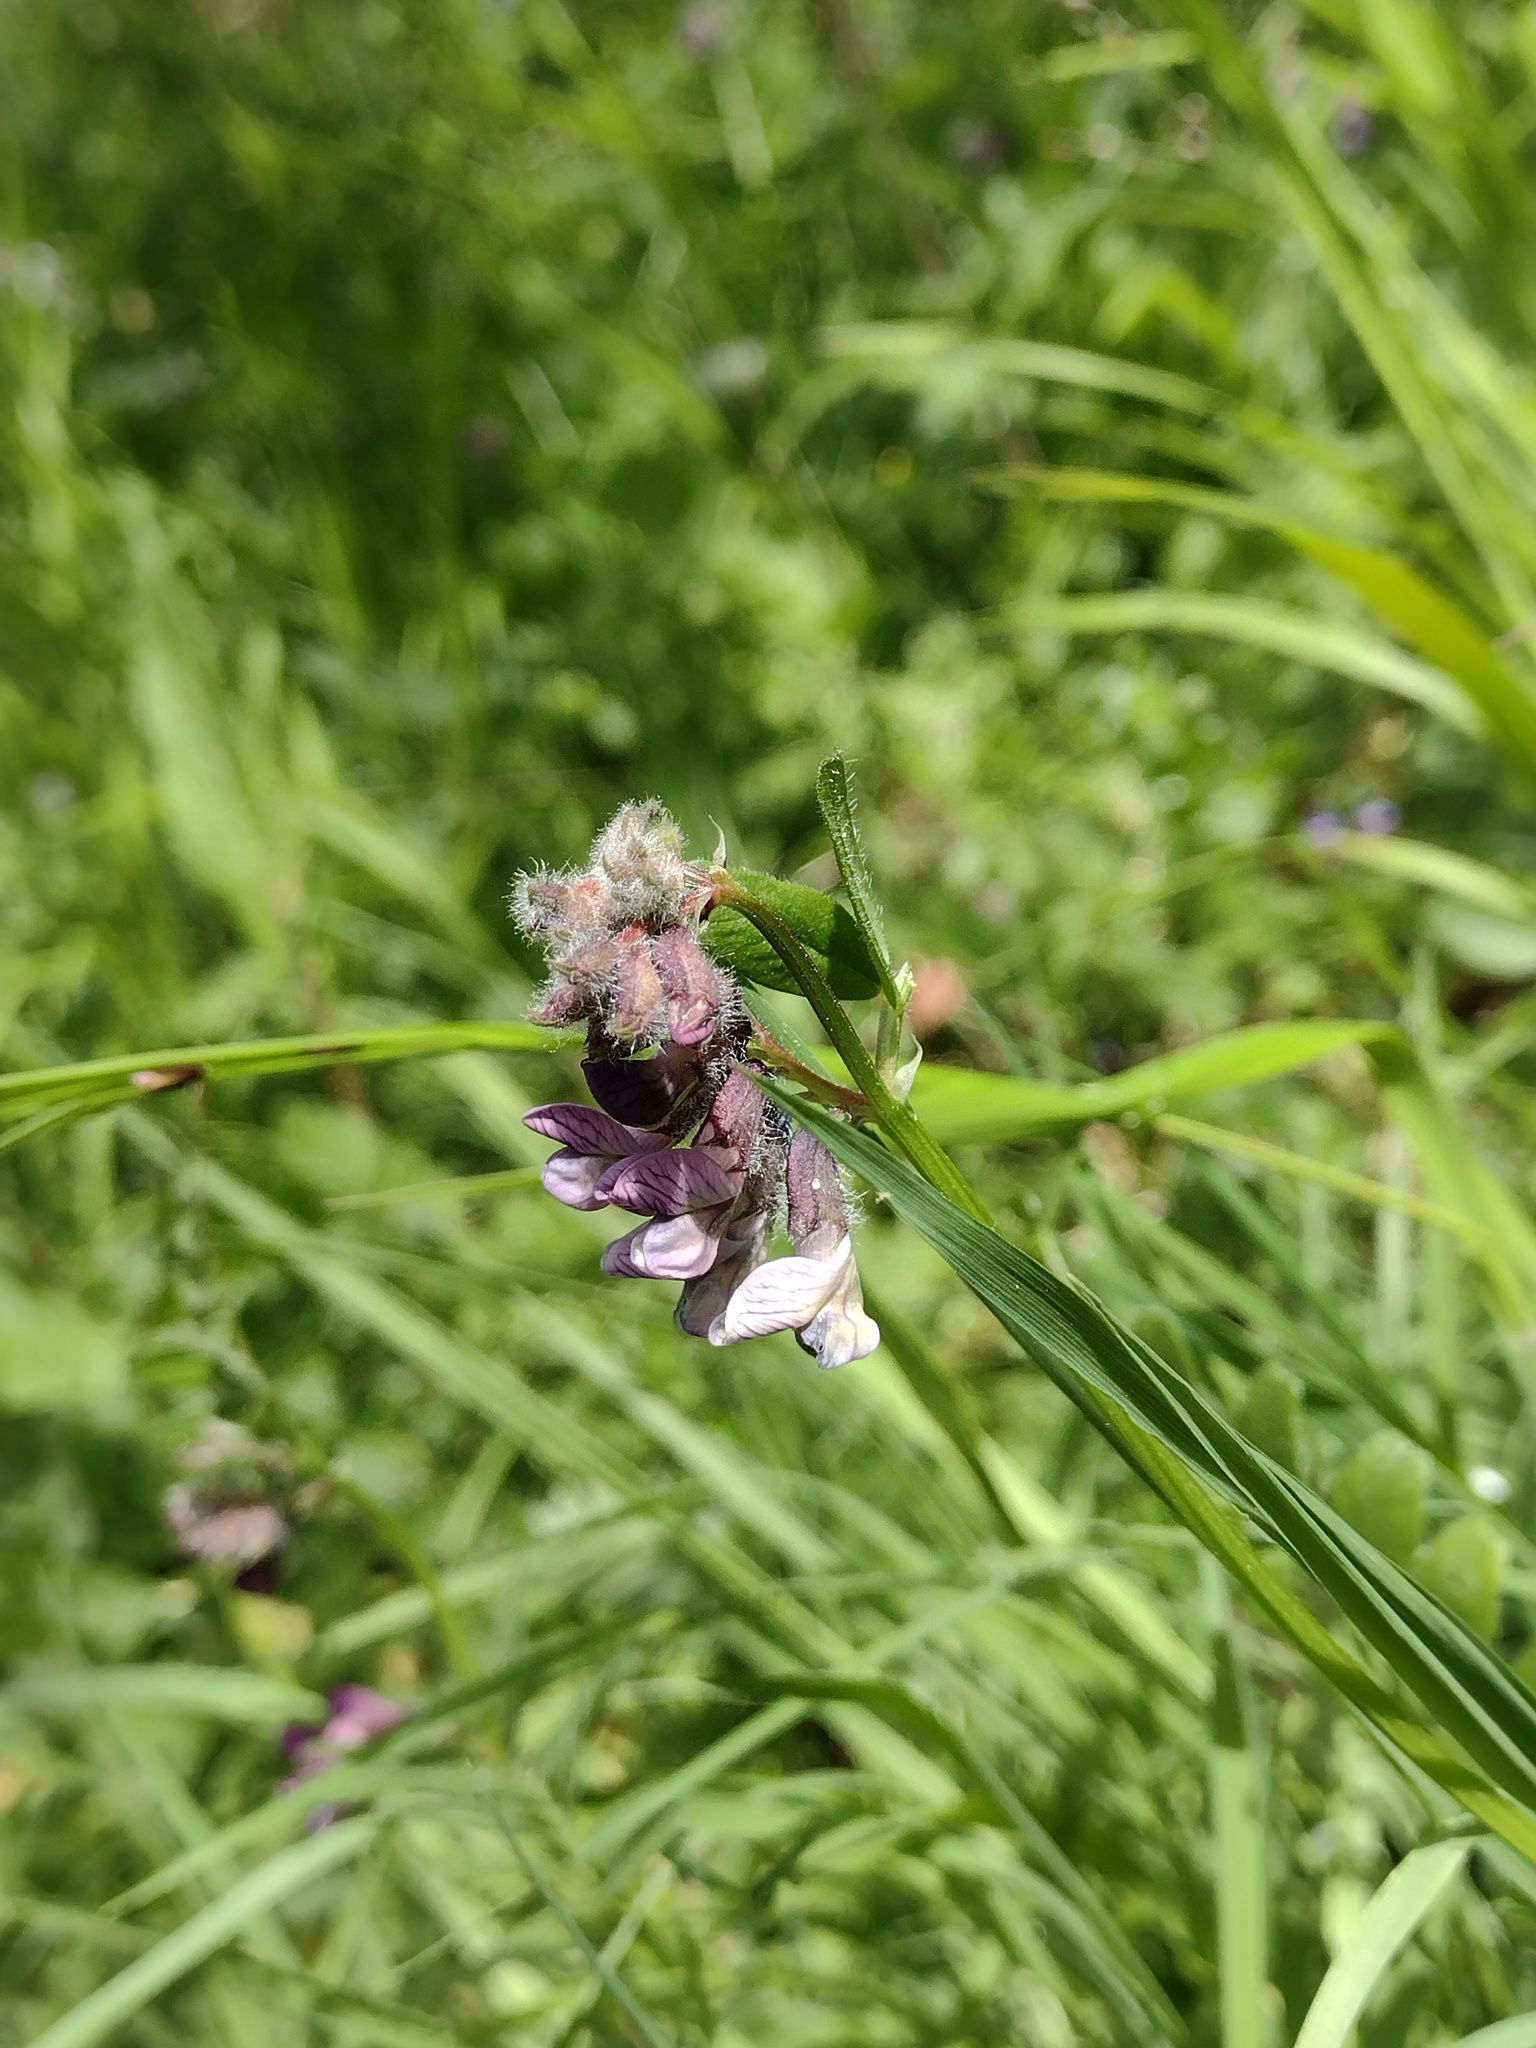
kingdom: Plantae
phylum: Tracheophyta
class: Magnoliopsida
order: Fabales
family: Fabaceae
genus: Vicia
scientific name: Vicia sepium
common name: Bush vetch
